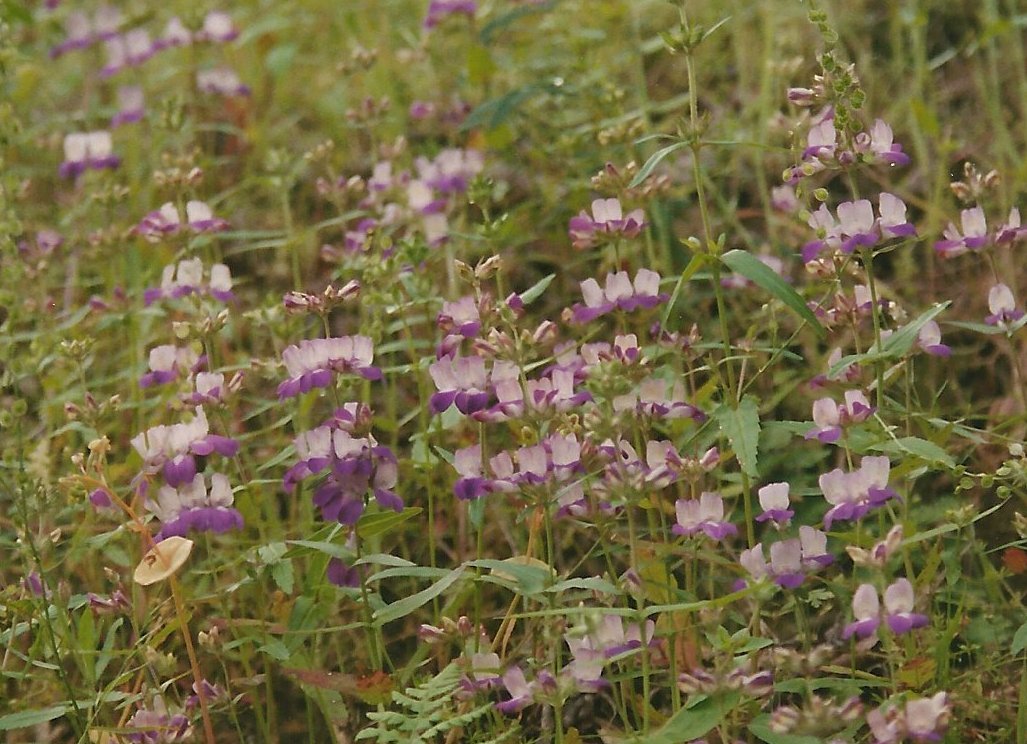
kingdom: Plantae
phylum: Tracheophyta
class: Magnoliopsida
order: Lamiales
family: Plantaginaceae
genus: Collinsia
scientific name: Collinsia heterophylla
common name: Chinese-houses
